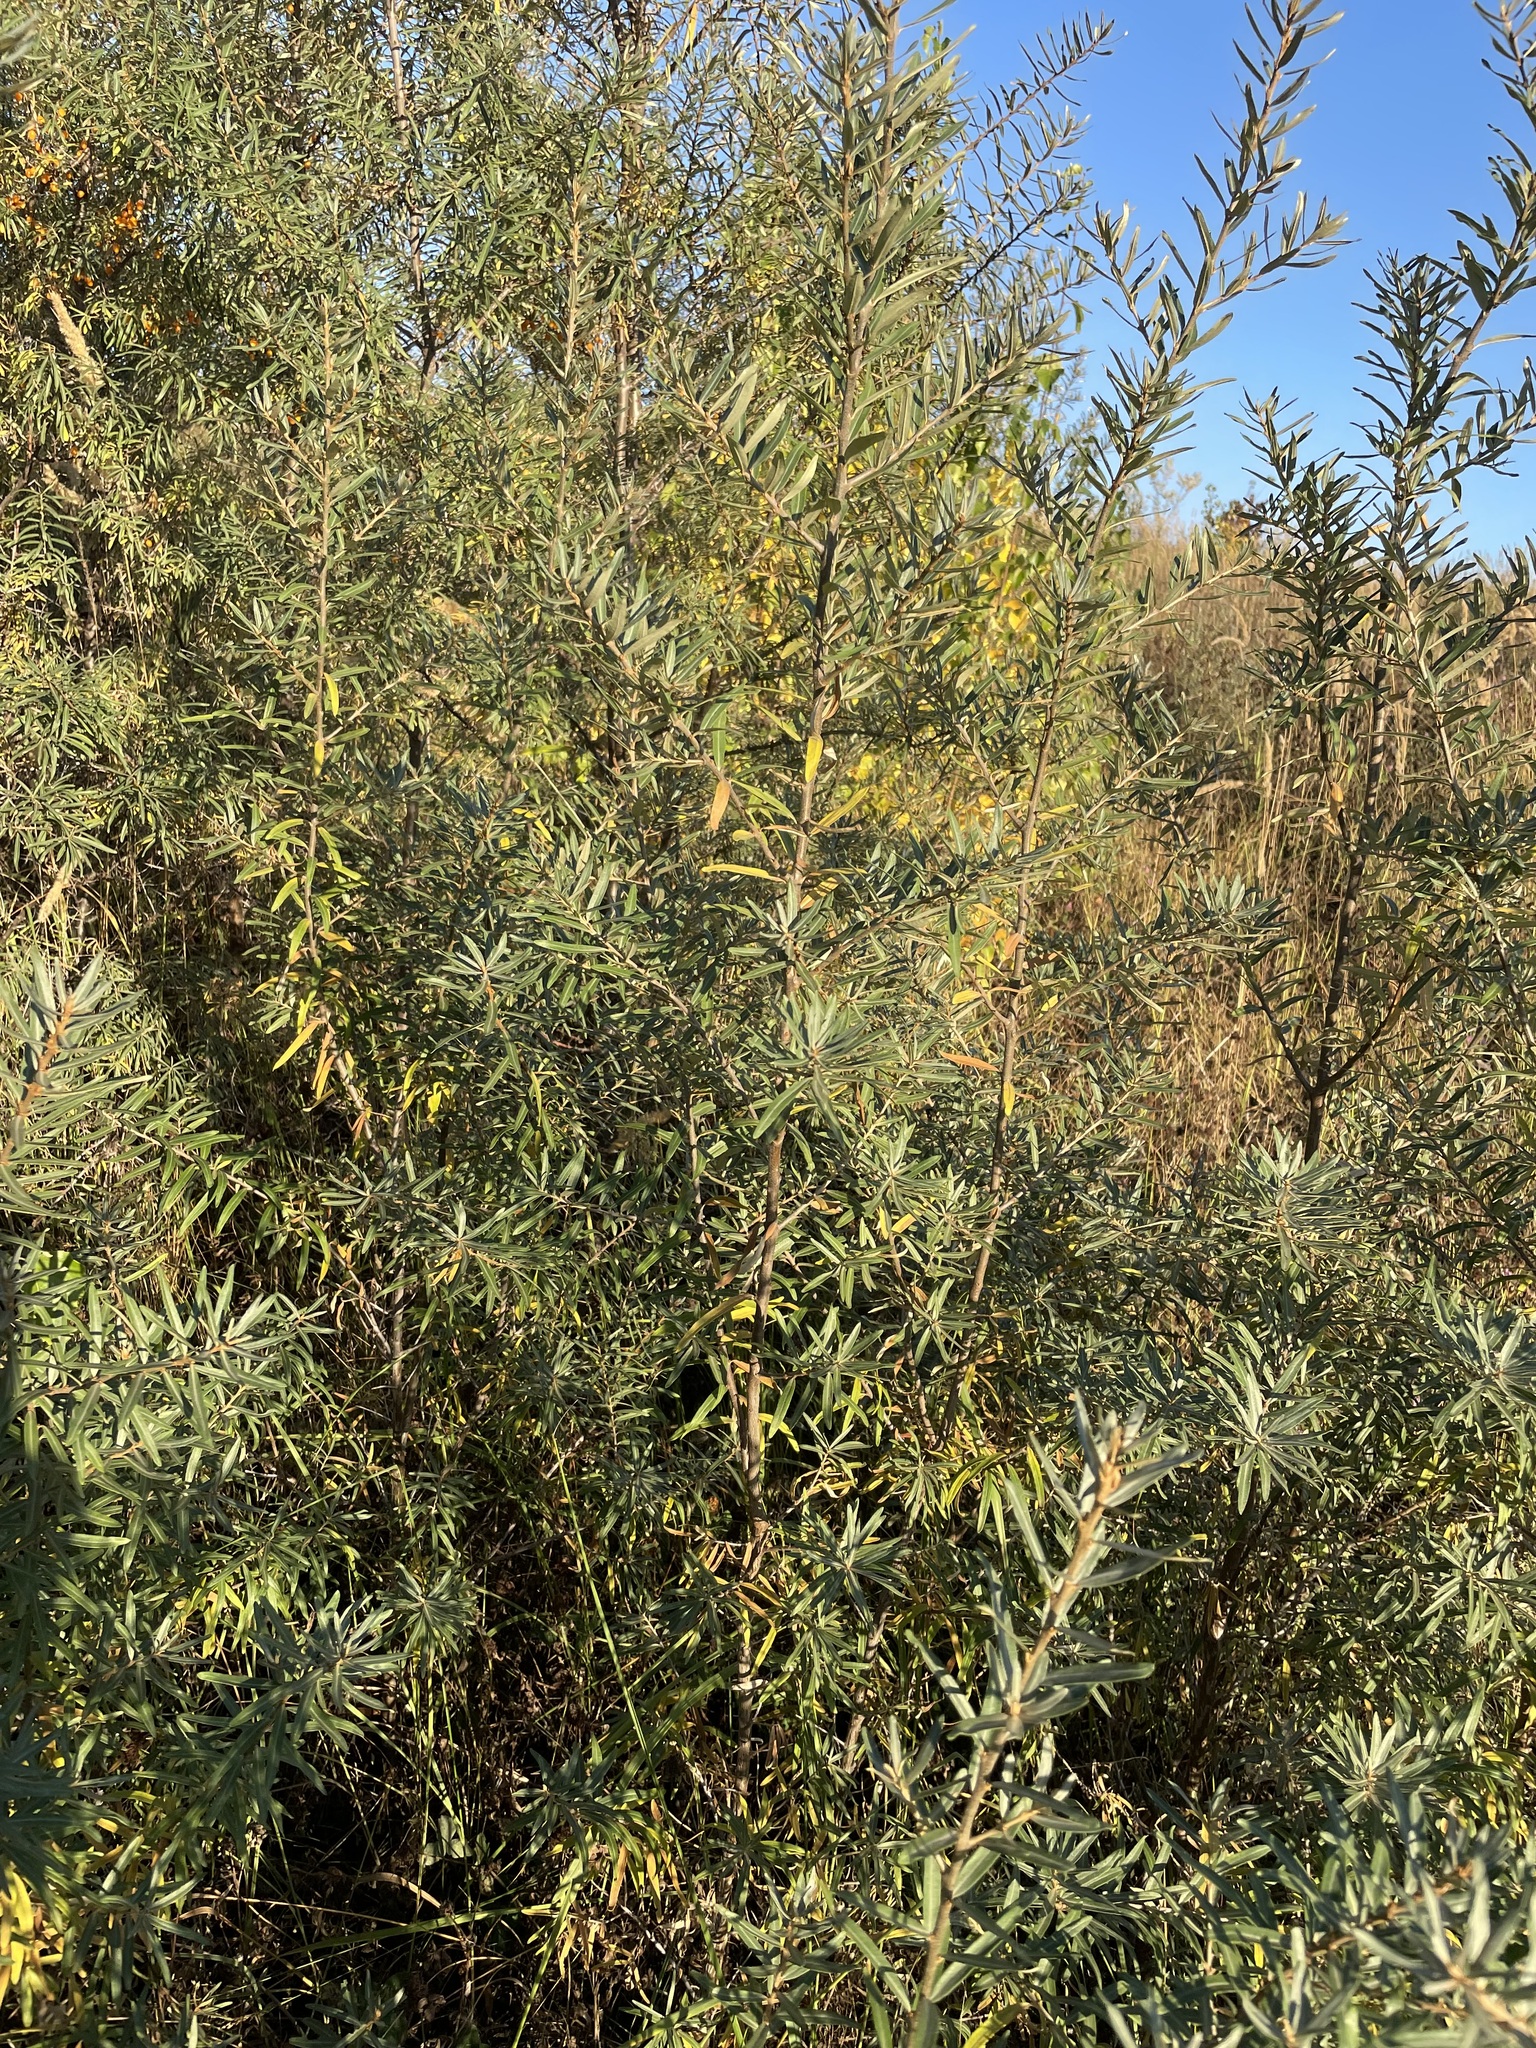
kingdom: Plantae
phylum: Tracheophyta
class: Magnoliopsida
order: Rosales
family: Elaeagnaceae
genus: Hippophae
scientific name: Hippophae rhamnoides
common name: Sea-buckthorn
